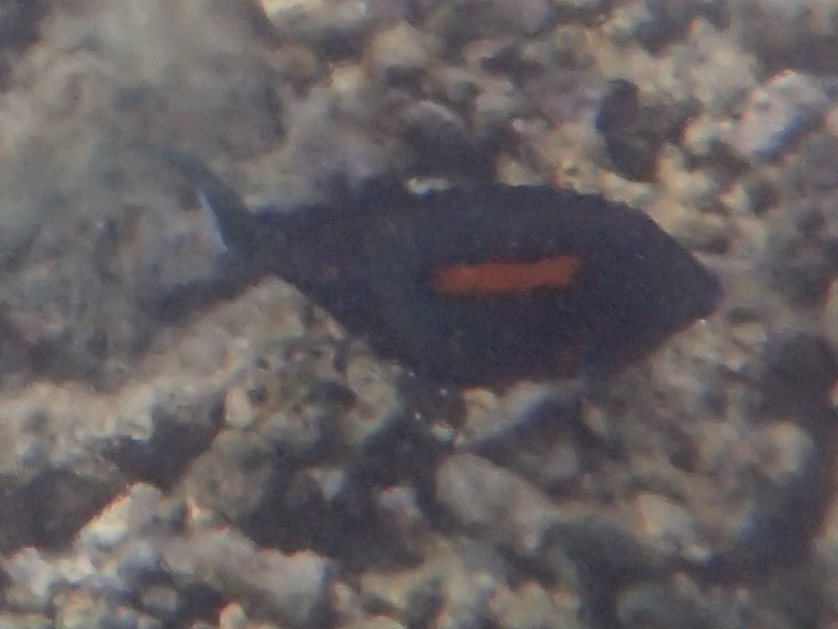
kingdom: Animalia
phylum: Chordata
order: Perciformes
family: Acanthuridae
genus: Acanthurus
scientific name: Acanthurus olivaceus
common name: Gendarme fish
